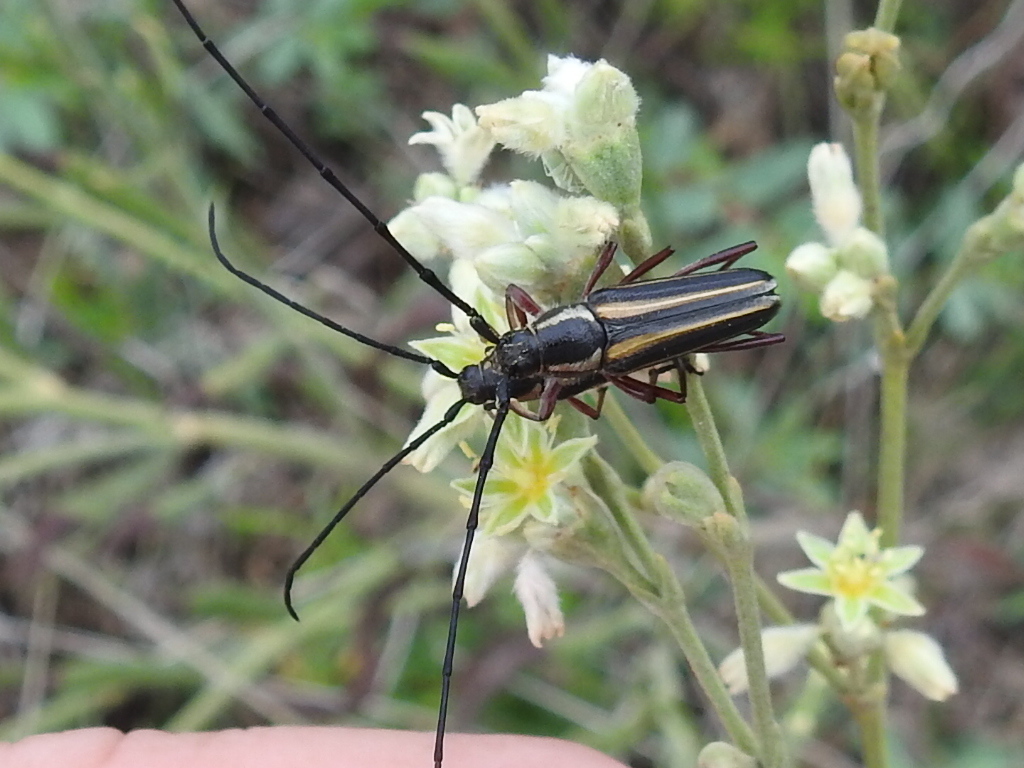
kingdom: Animalia
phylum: Arthropoda
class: Insecta
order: Coleoptera
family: Cerambycidae
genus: Sphaenothecus
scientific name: Sphaenothecus bilineatus
